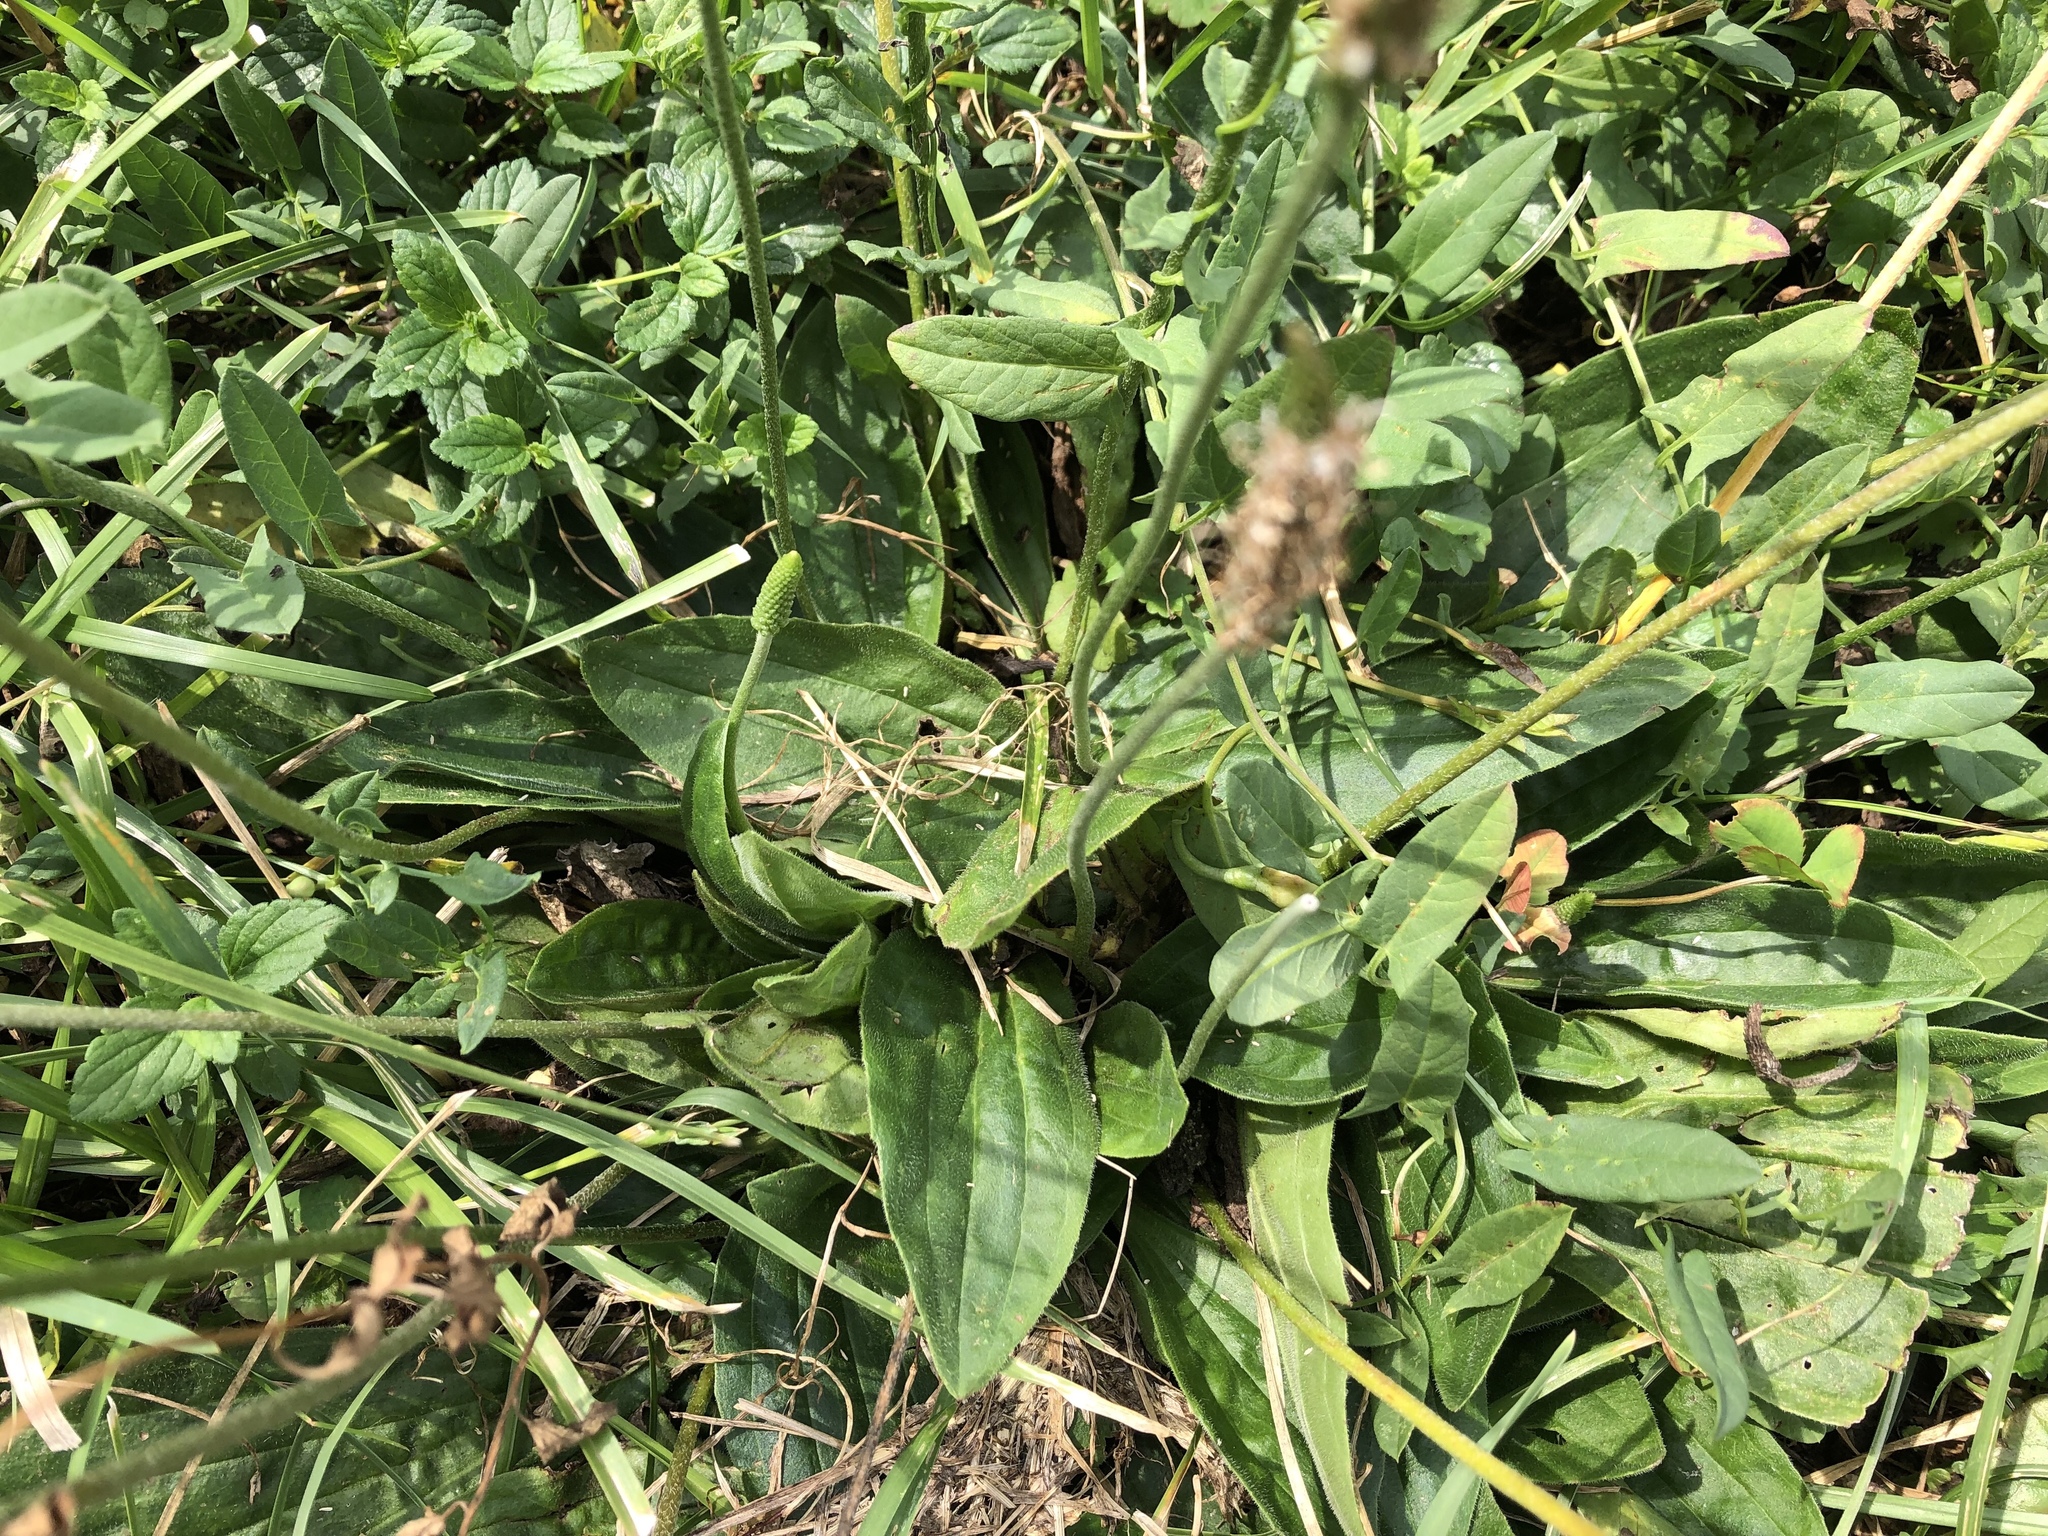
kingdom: Plantae
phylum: Tracheophyta
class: Magnoliopsida
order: Lamiales
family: Plantaginaceae
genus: Plantago
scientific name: Plantago media
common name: Hoary plantain
